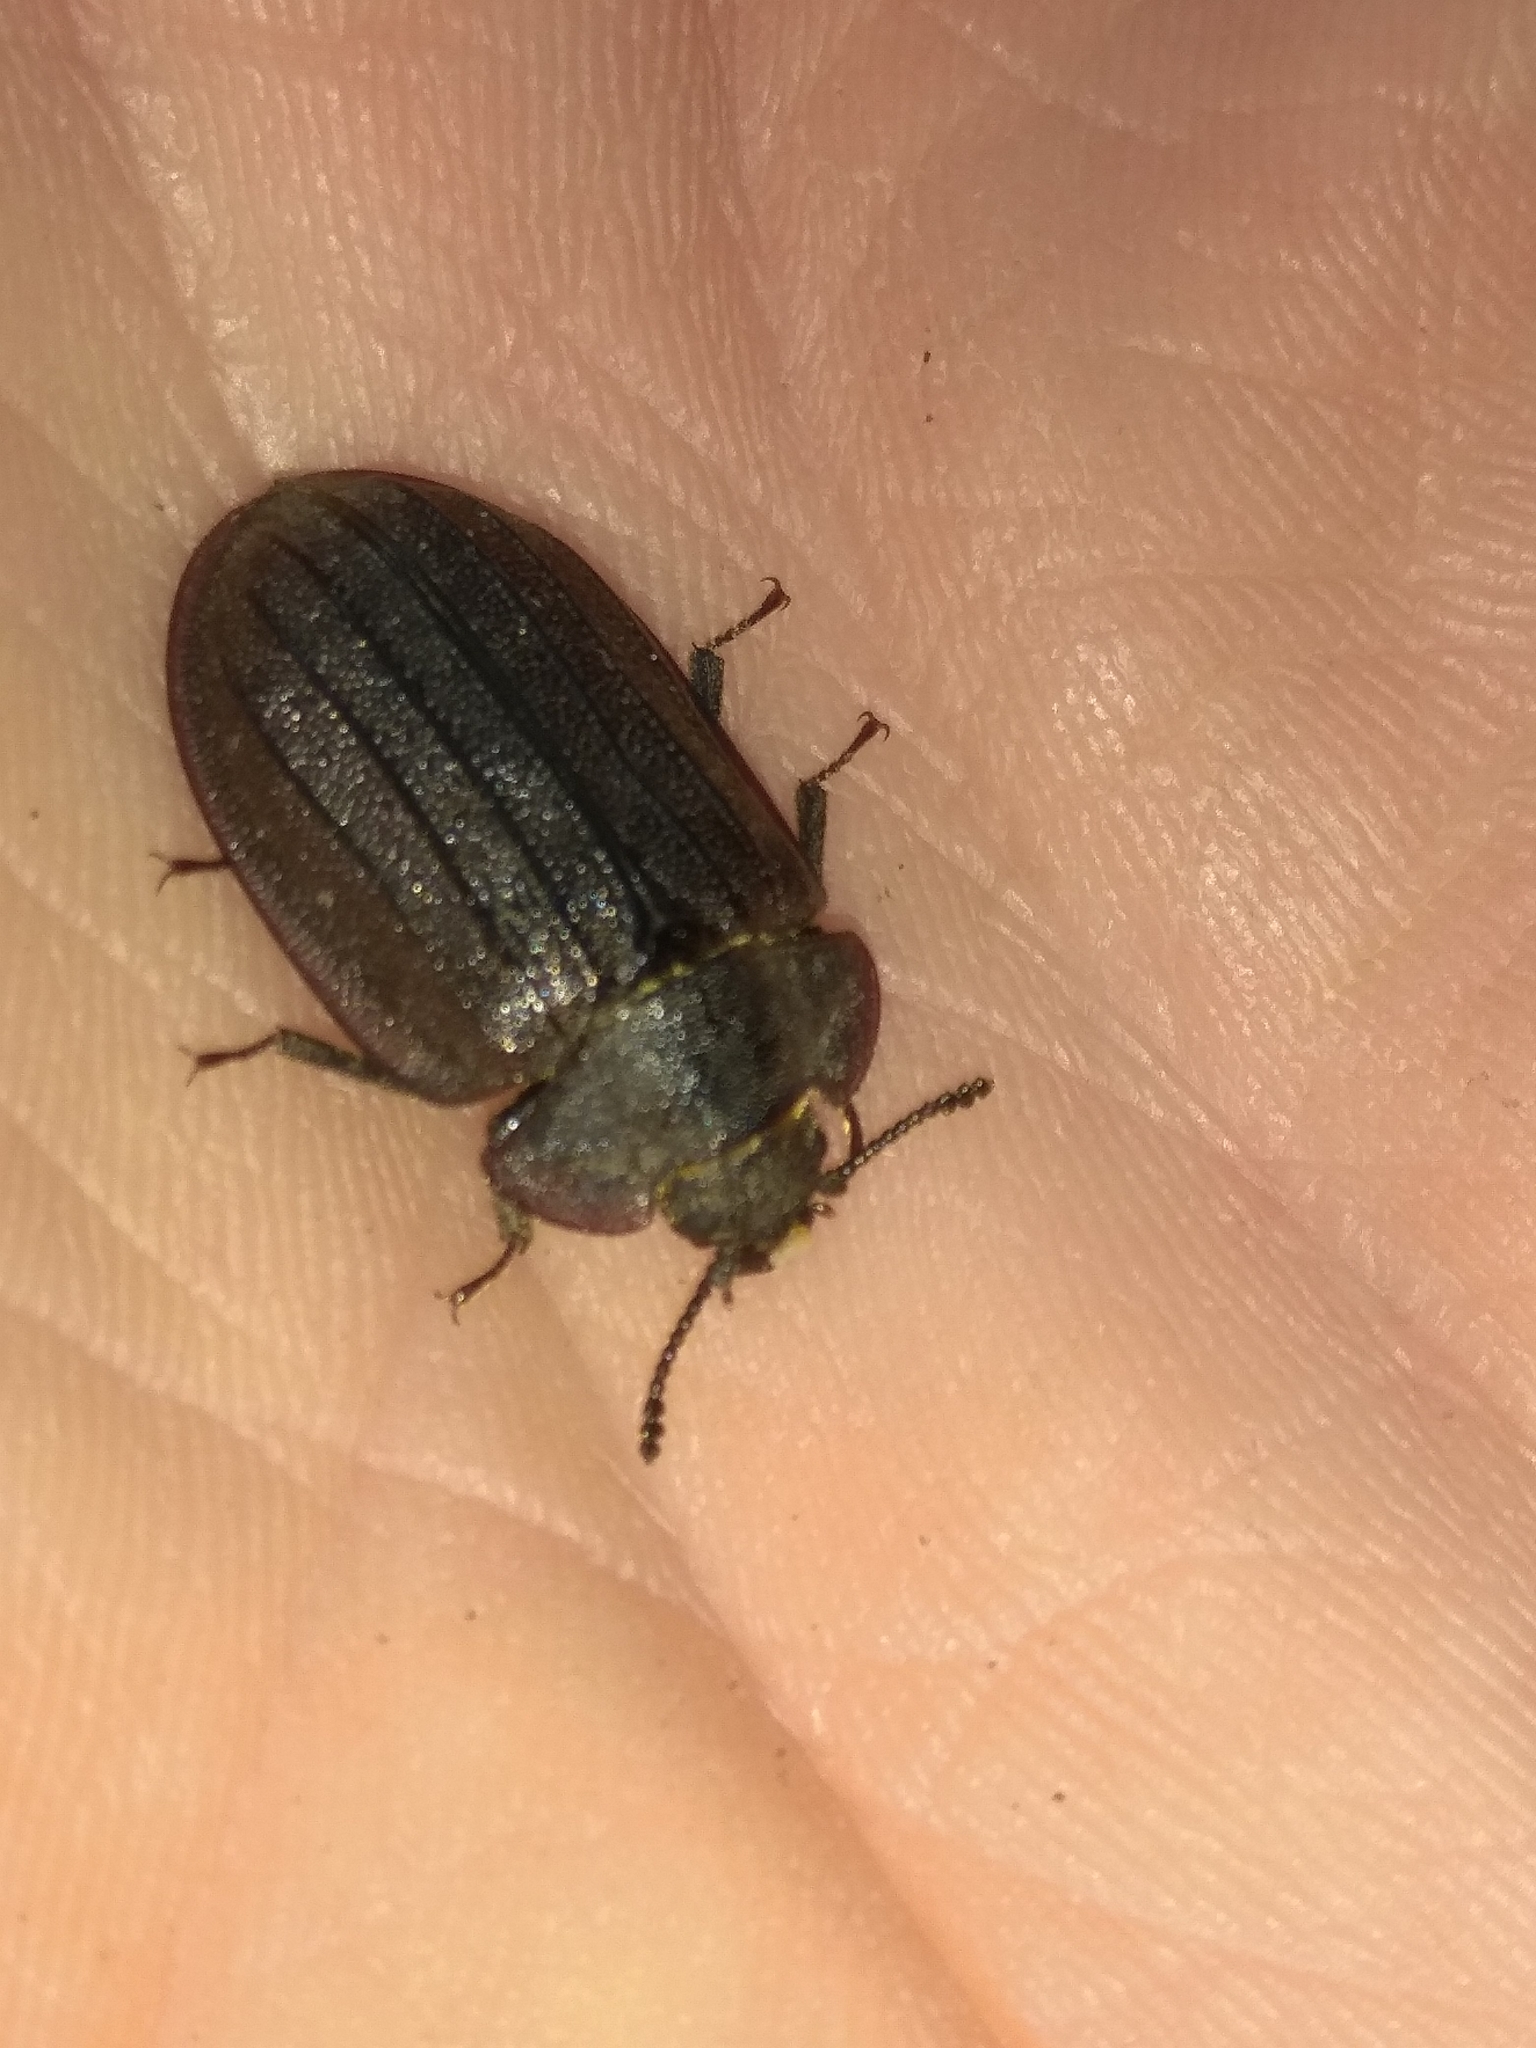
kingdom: Animalia
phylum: Arthropoda
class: Insecta
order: Coleoptera
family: Trogossitidae
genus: Peltis
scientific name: Peltis grossa
